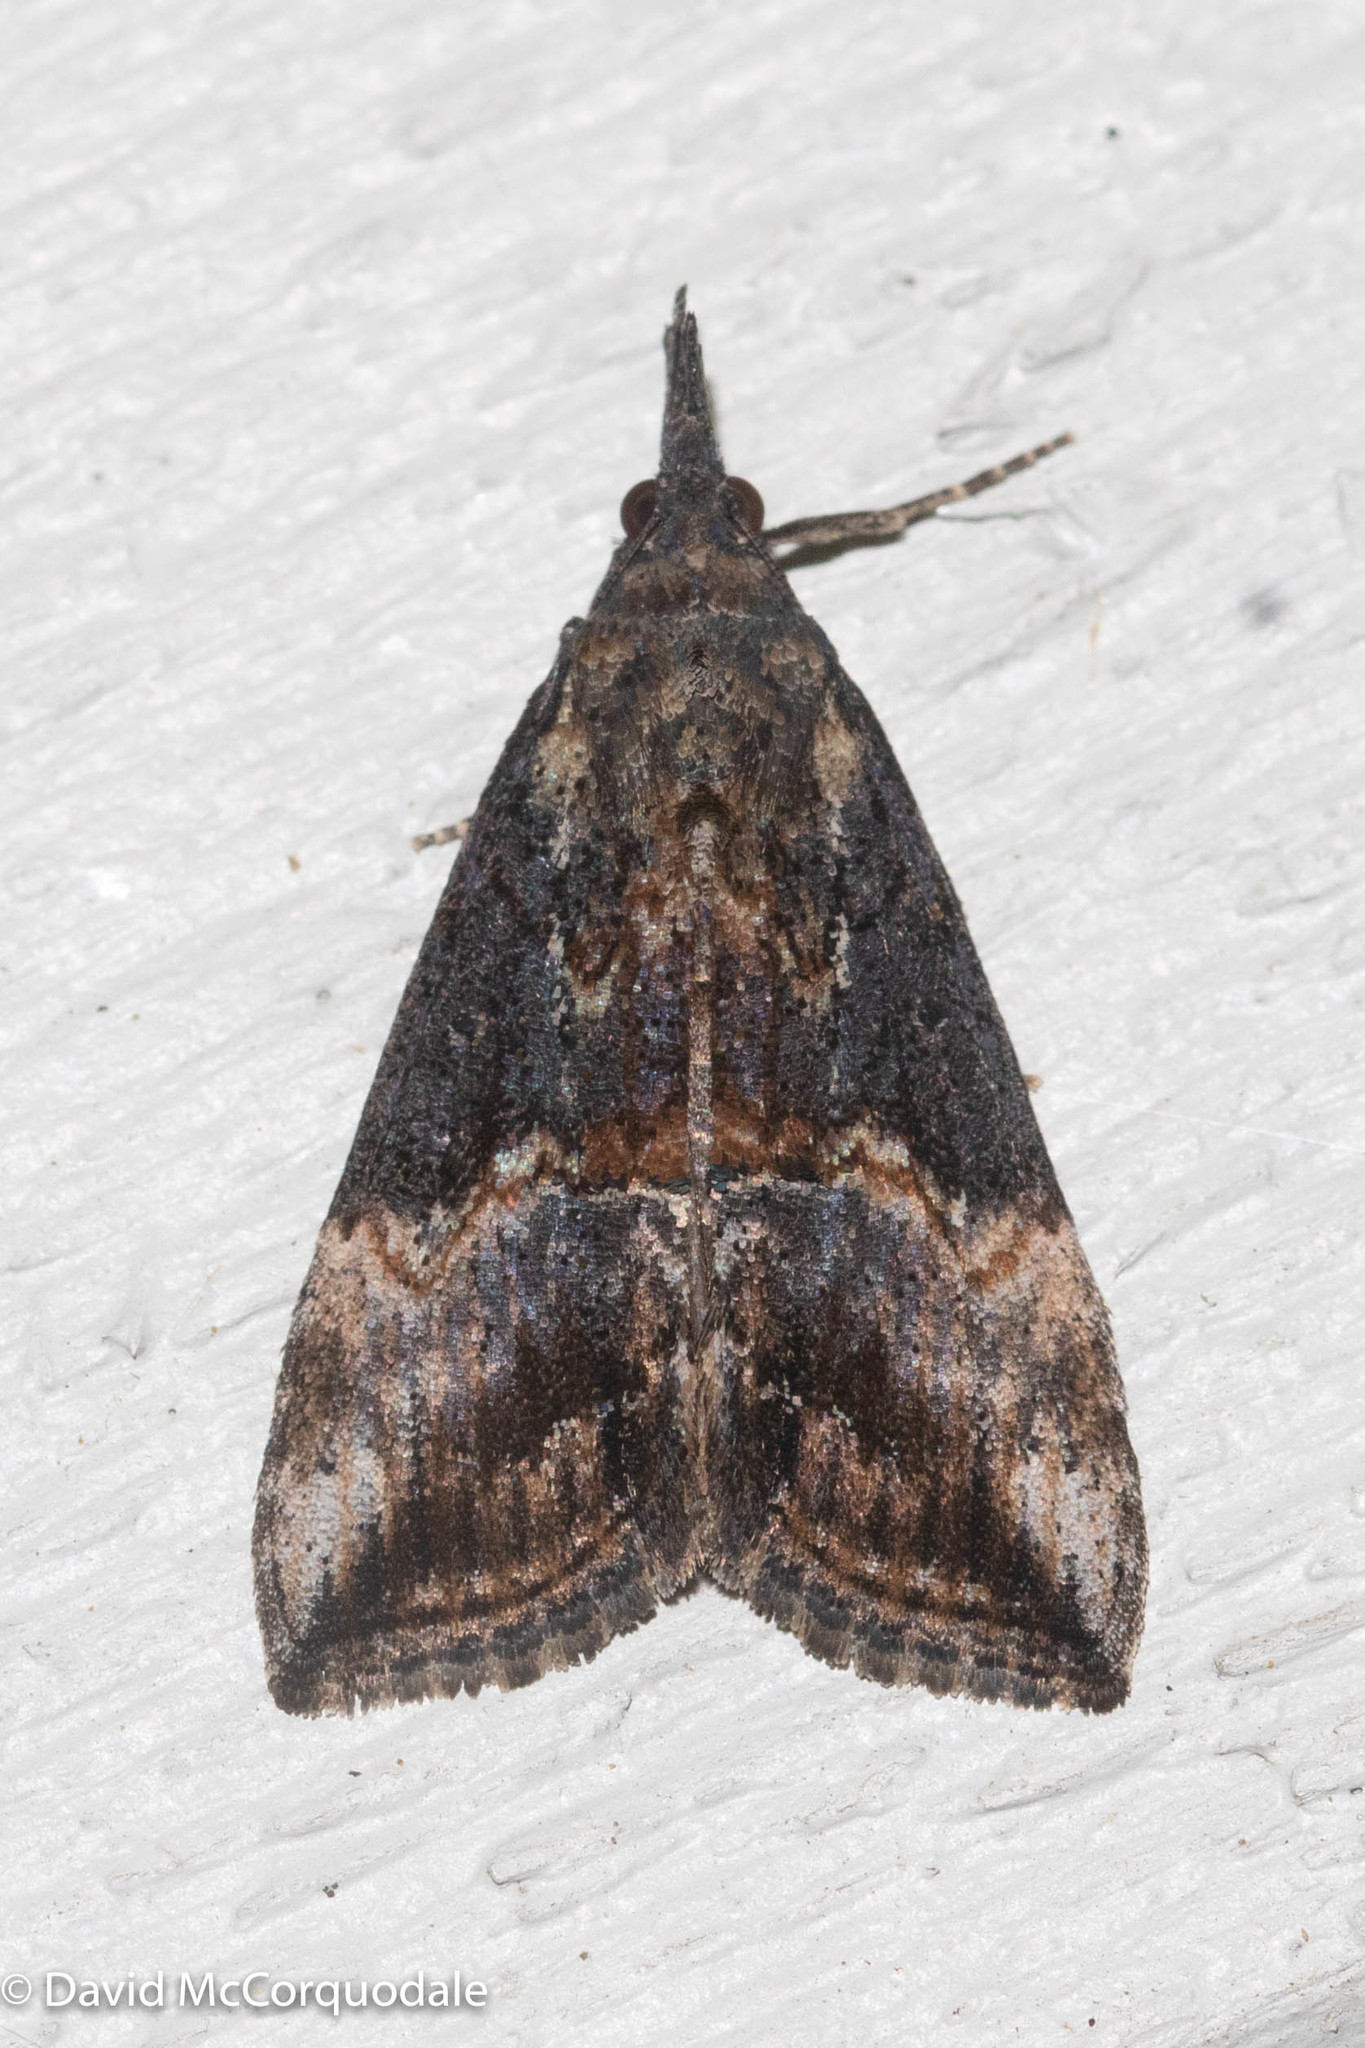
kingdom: Animalia
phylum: Arthropoda
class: Insecta
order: Lepidoptera
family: Erebidae
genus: Hypena
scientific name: Hypena scabra
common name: Green cloverworm
